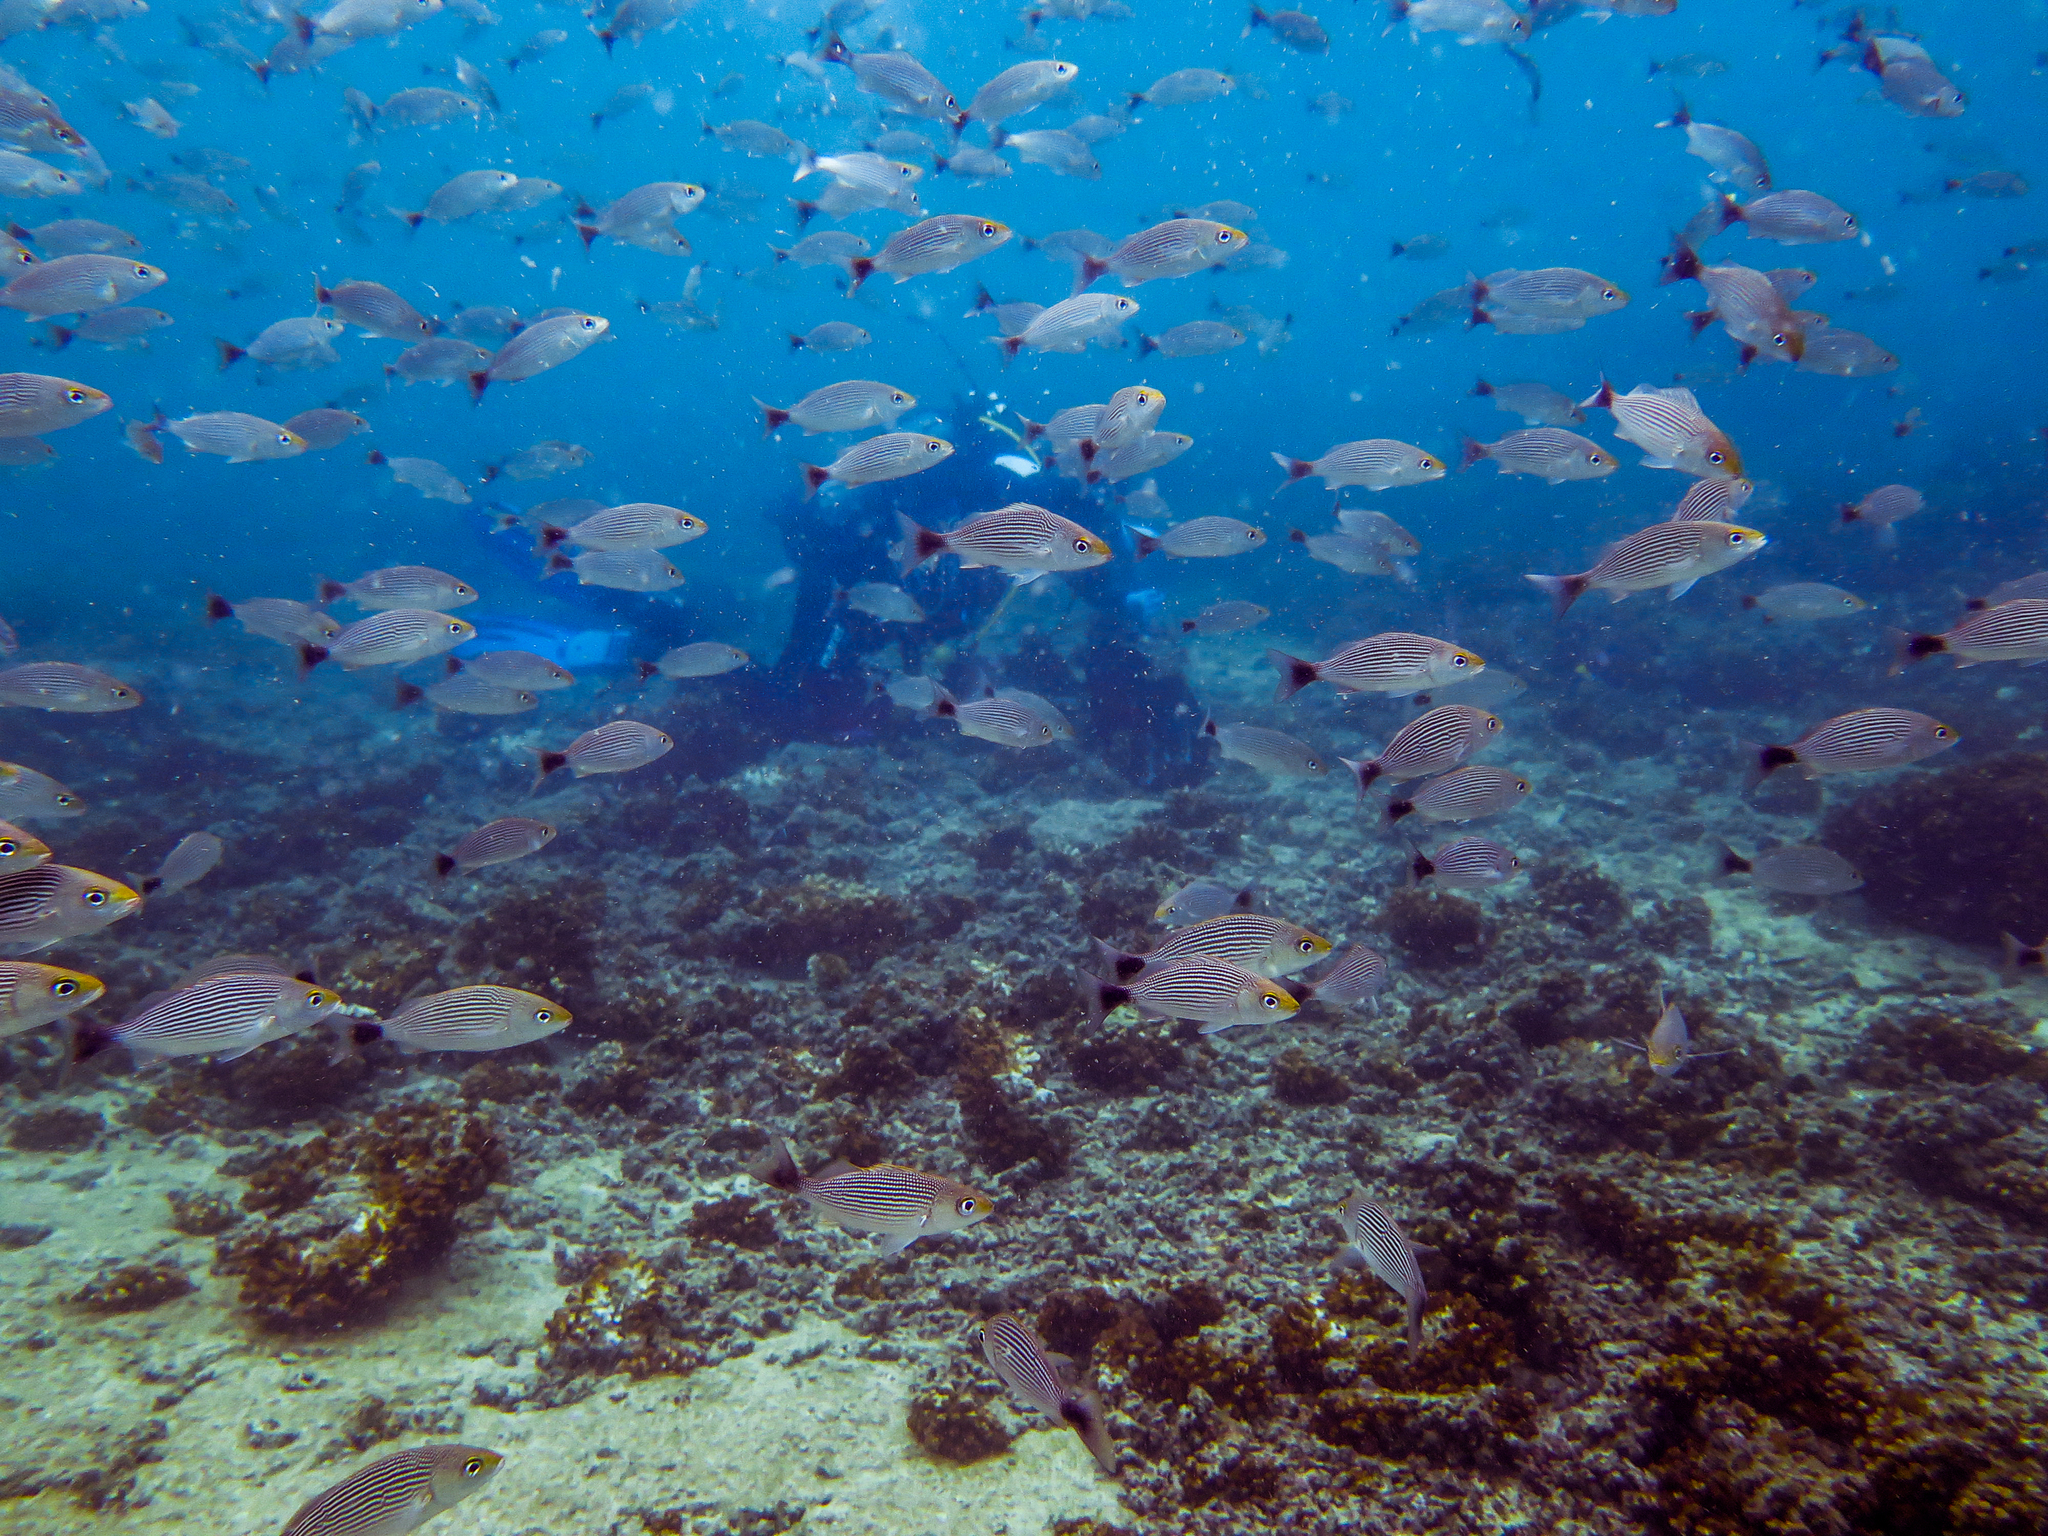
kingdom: Animalia
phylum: Chordata
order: Perciformes
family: Haemulidae
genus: Haemulon
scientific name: Haemulon maculicauda
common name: Spottail grunt
